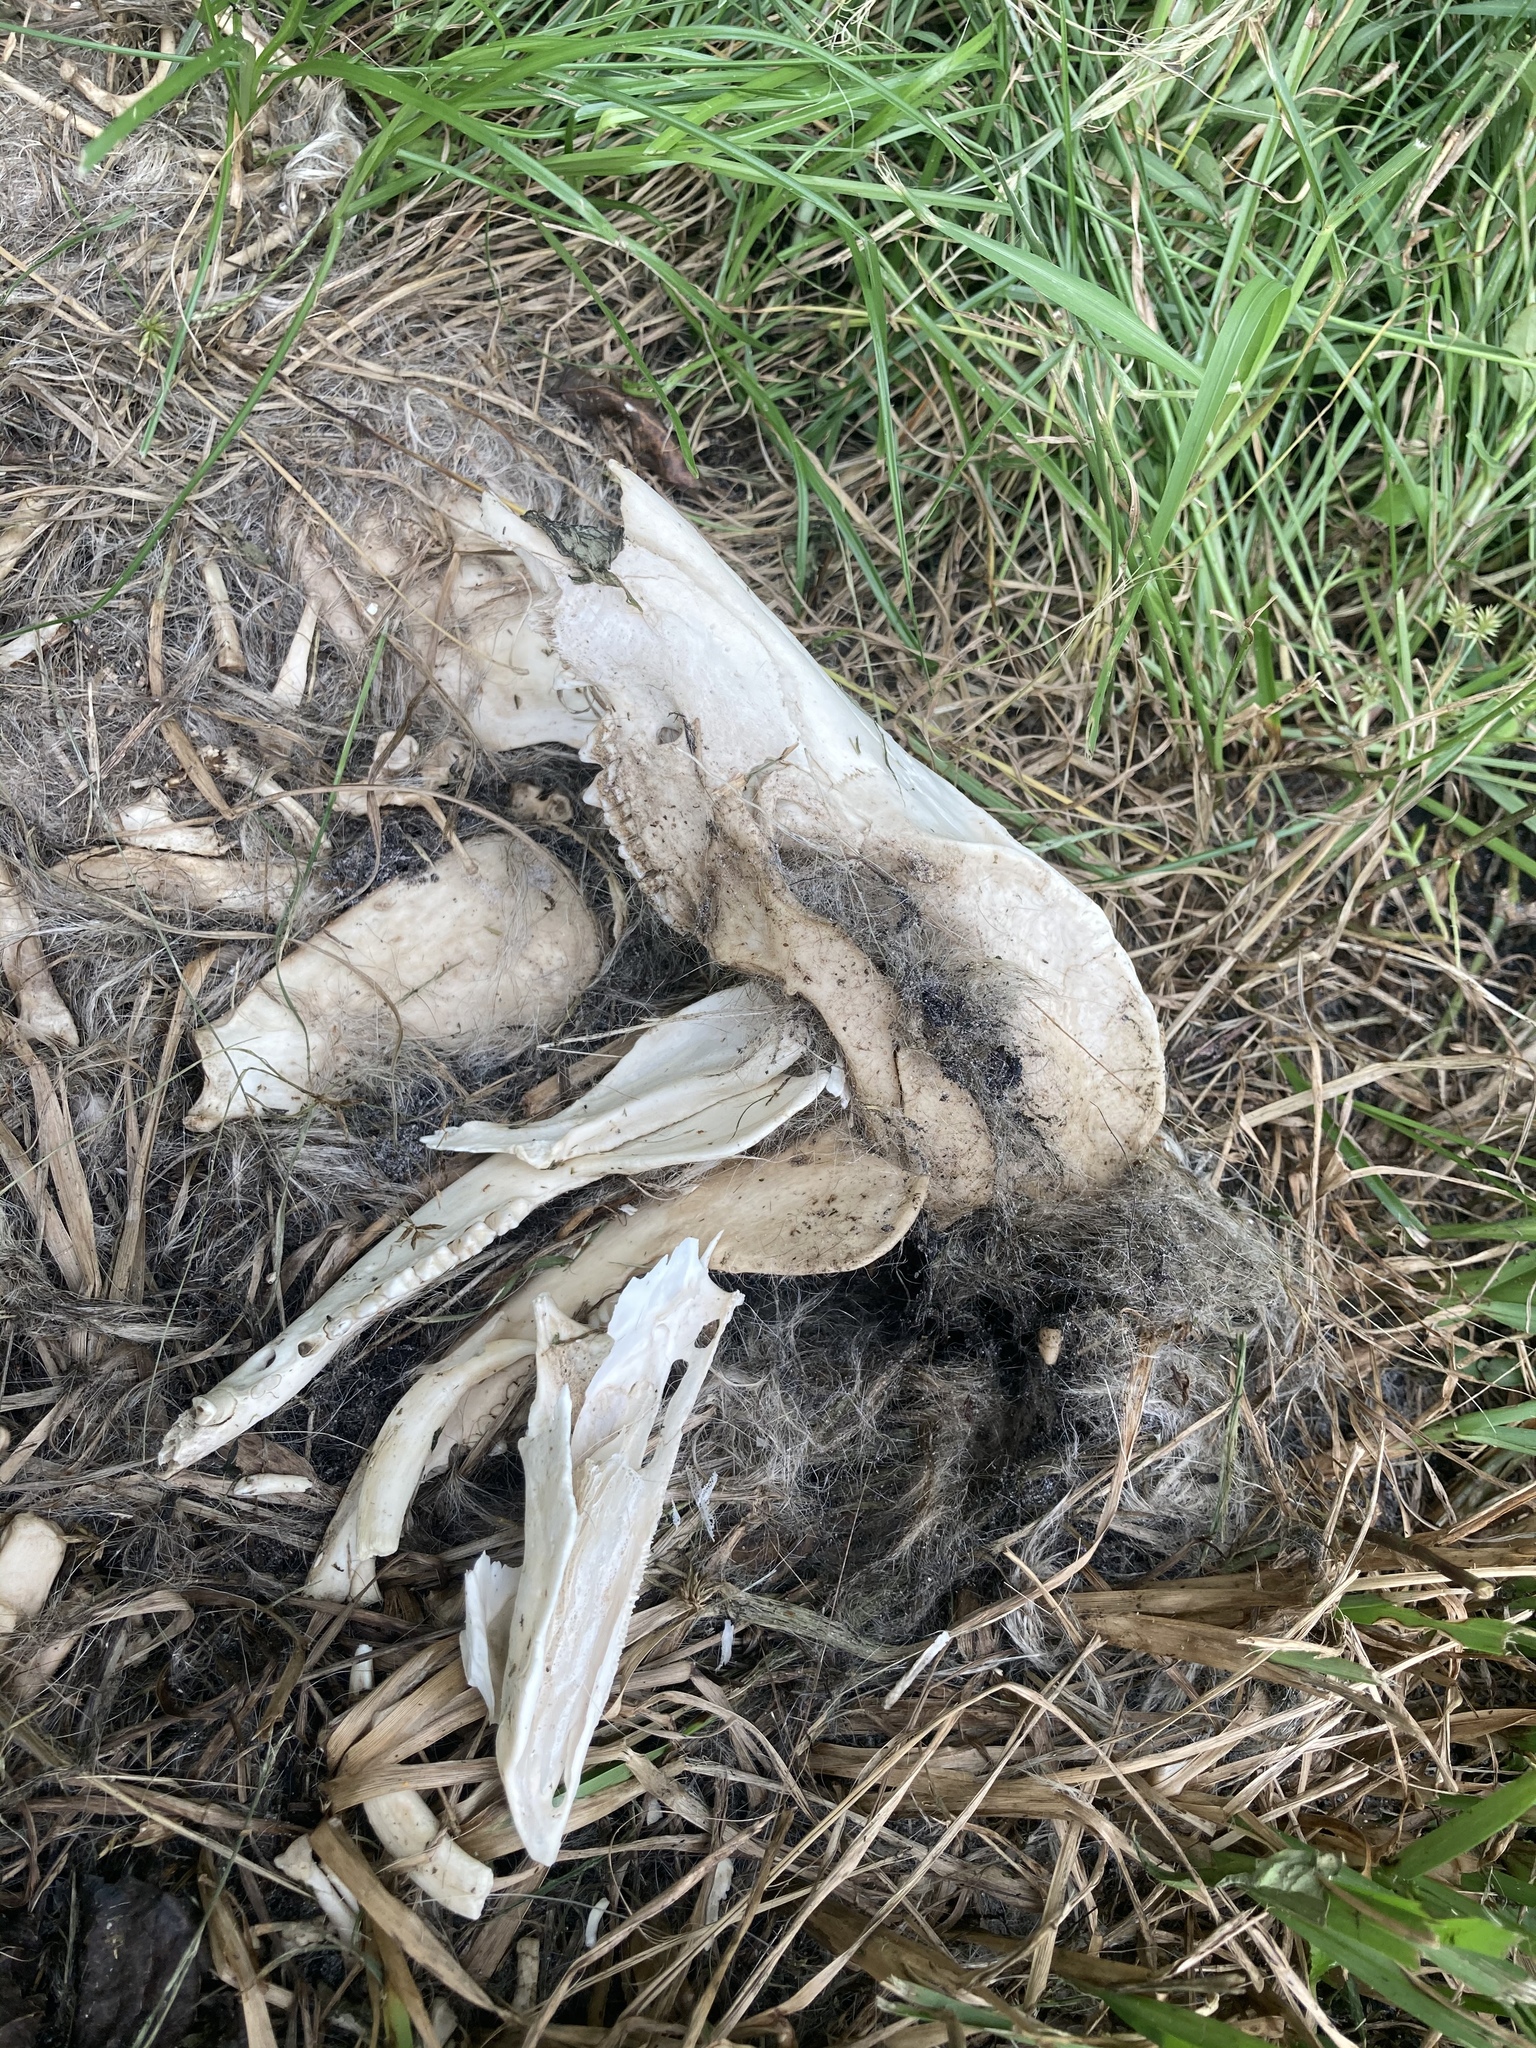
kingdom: Animalia
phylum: Chordata
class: Mammalia
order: Didelphimorphia
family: Didelphidae
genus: Didelphis
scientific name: Didelphis virginiana
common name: Virginia opossum
